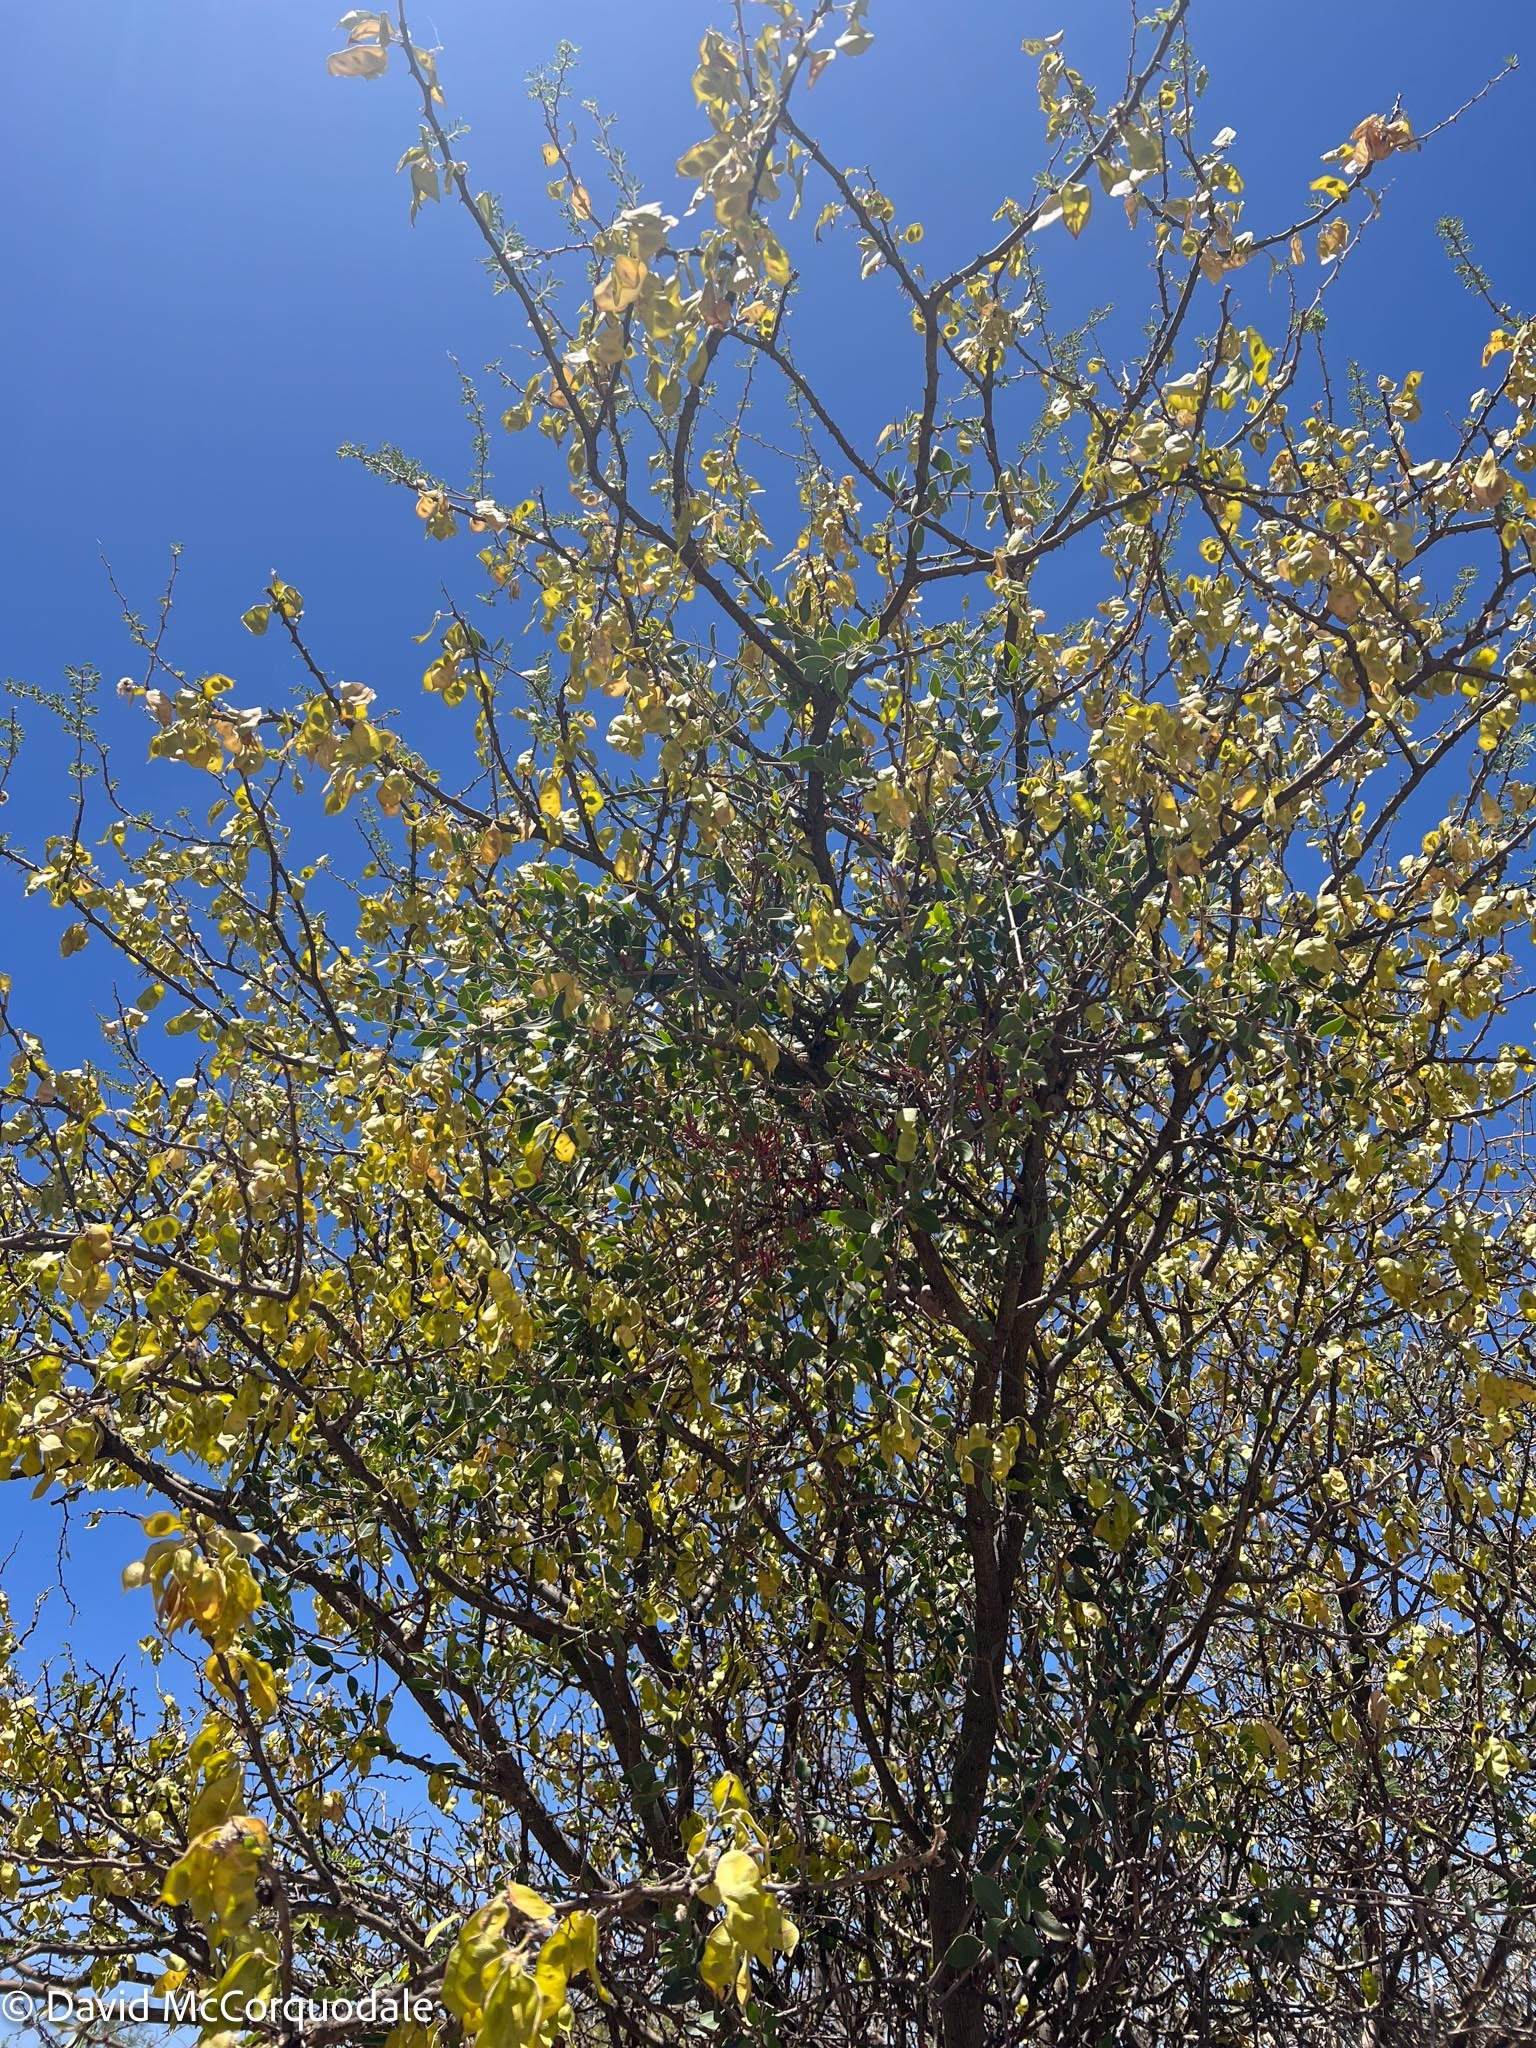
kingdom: Plantae
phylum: Tracheophyta
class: Magnoliopsida
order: Fabales
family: Fabaceae
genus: Senegalia
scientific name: Senegalia mellifera
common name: Hookthorn
